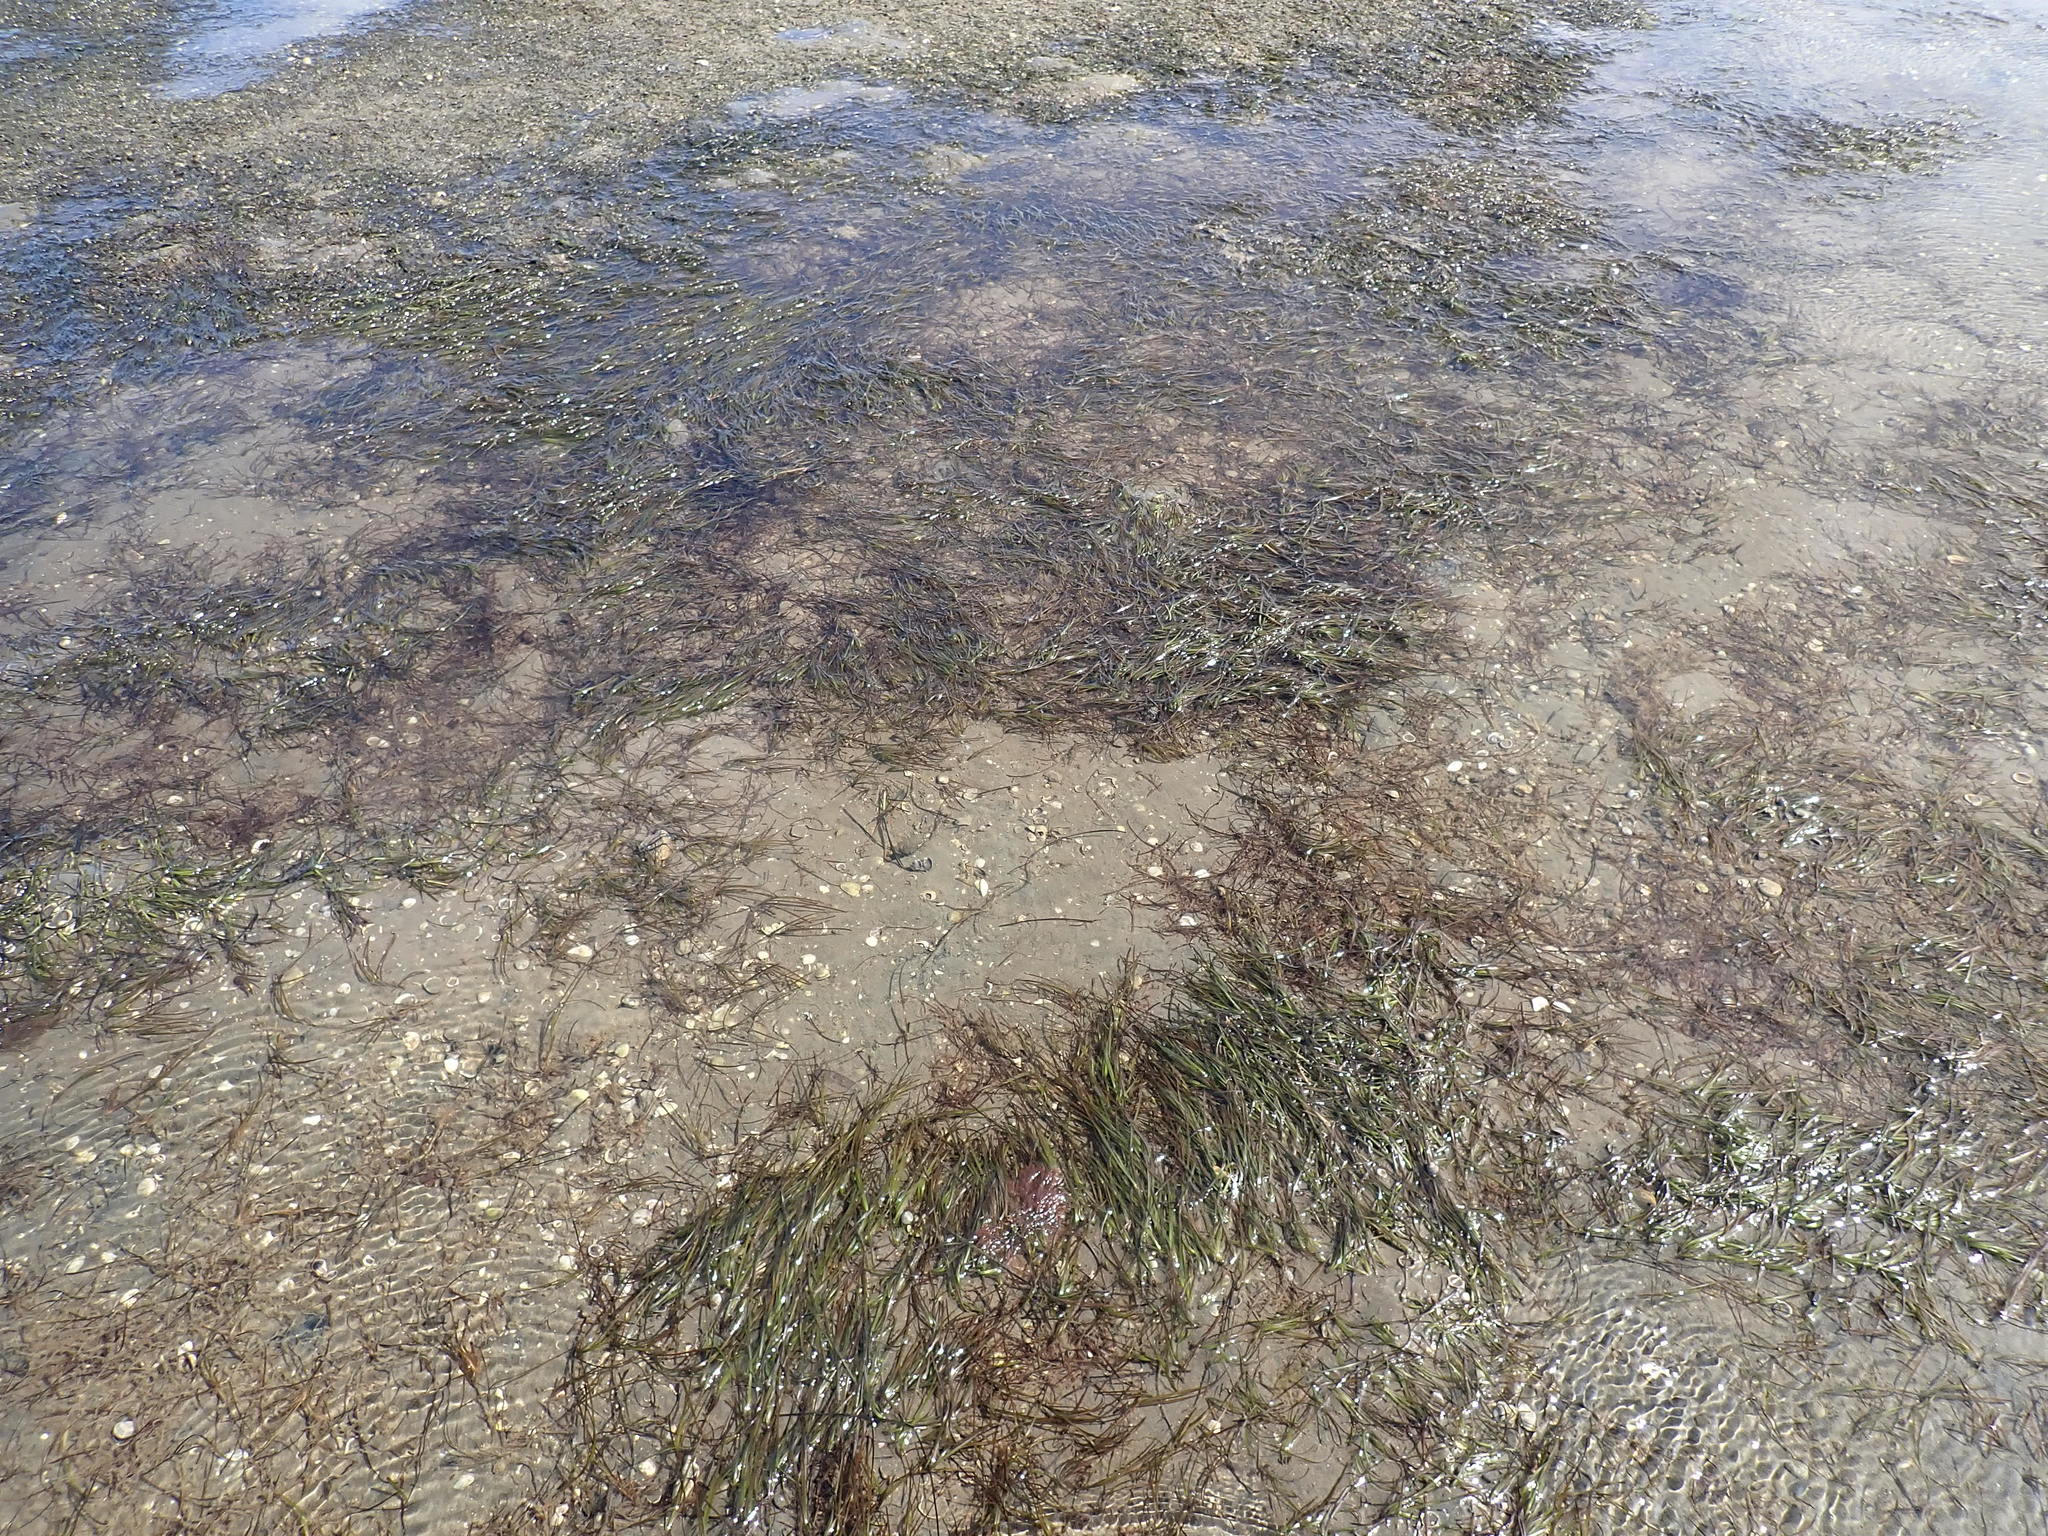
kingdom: Plantae
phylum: Tracheophyta
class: Liliopsida
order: Alismatales
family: Zosteraceae
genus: Zostera
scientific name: Zostera novazelandica
